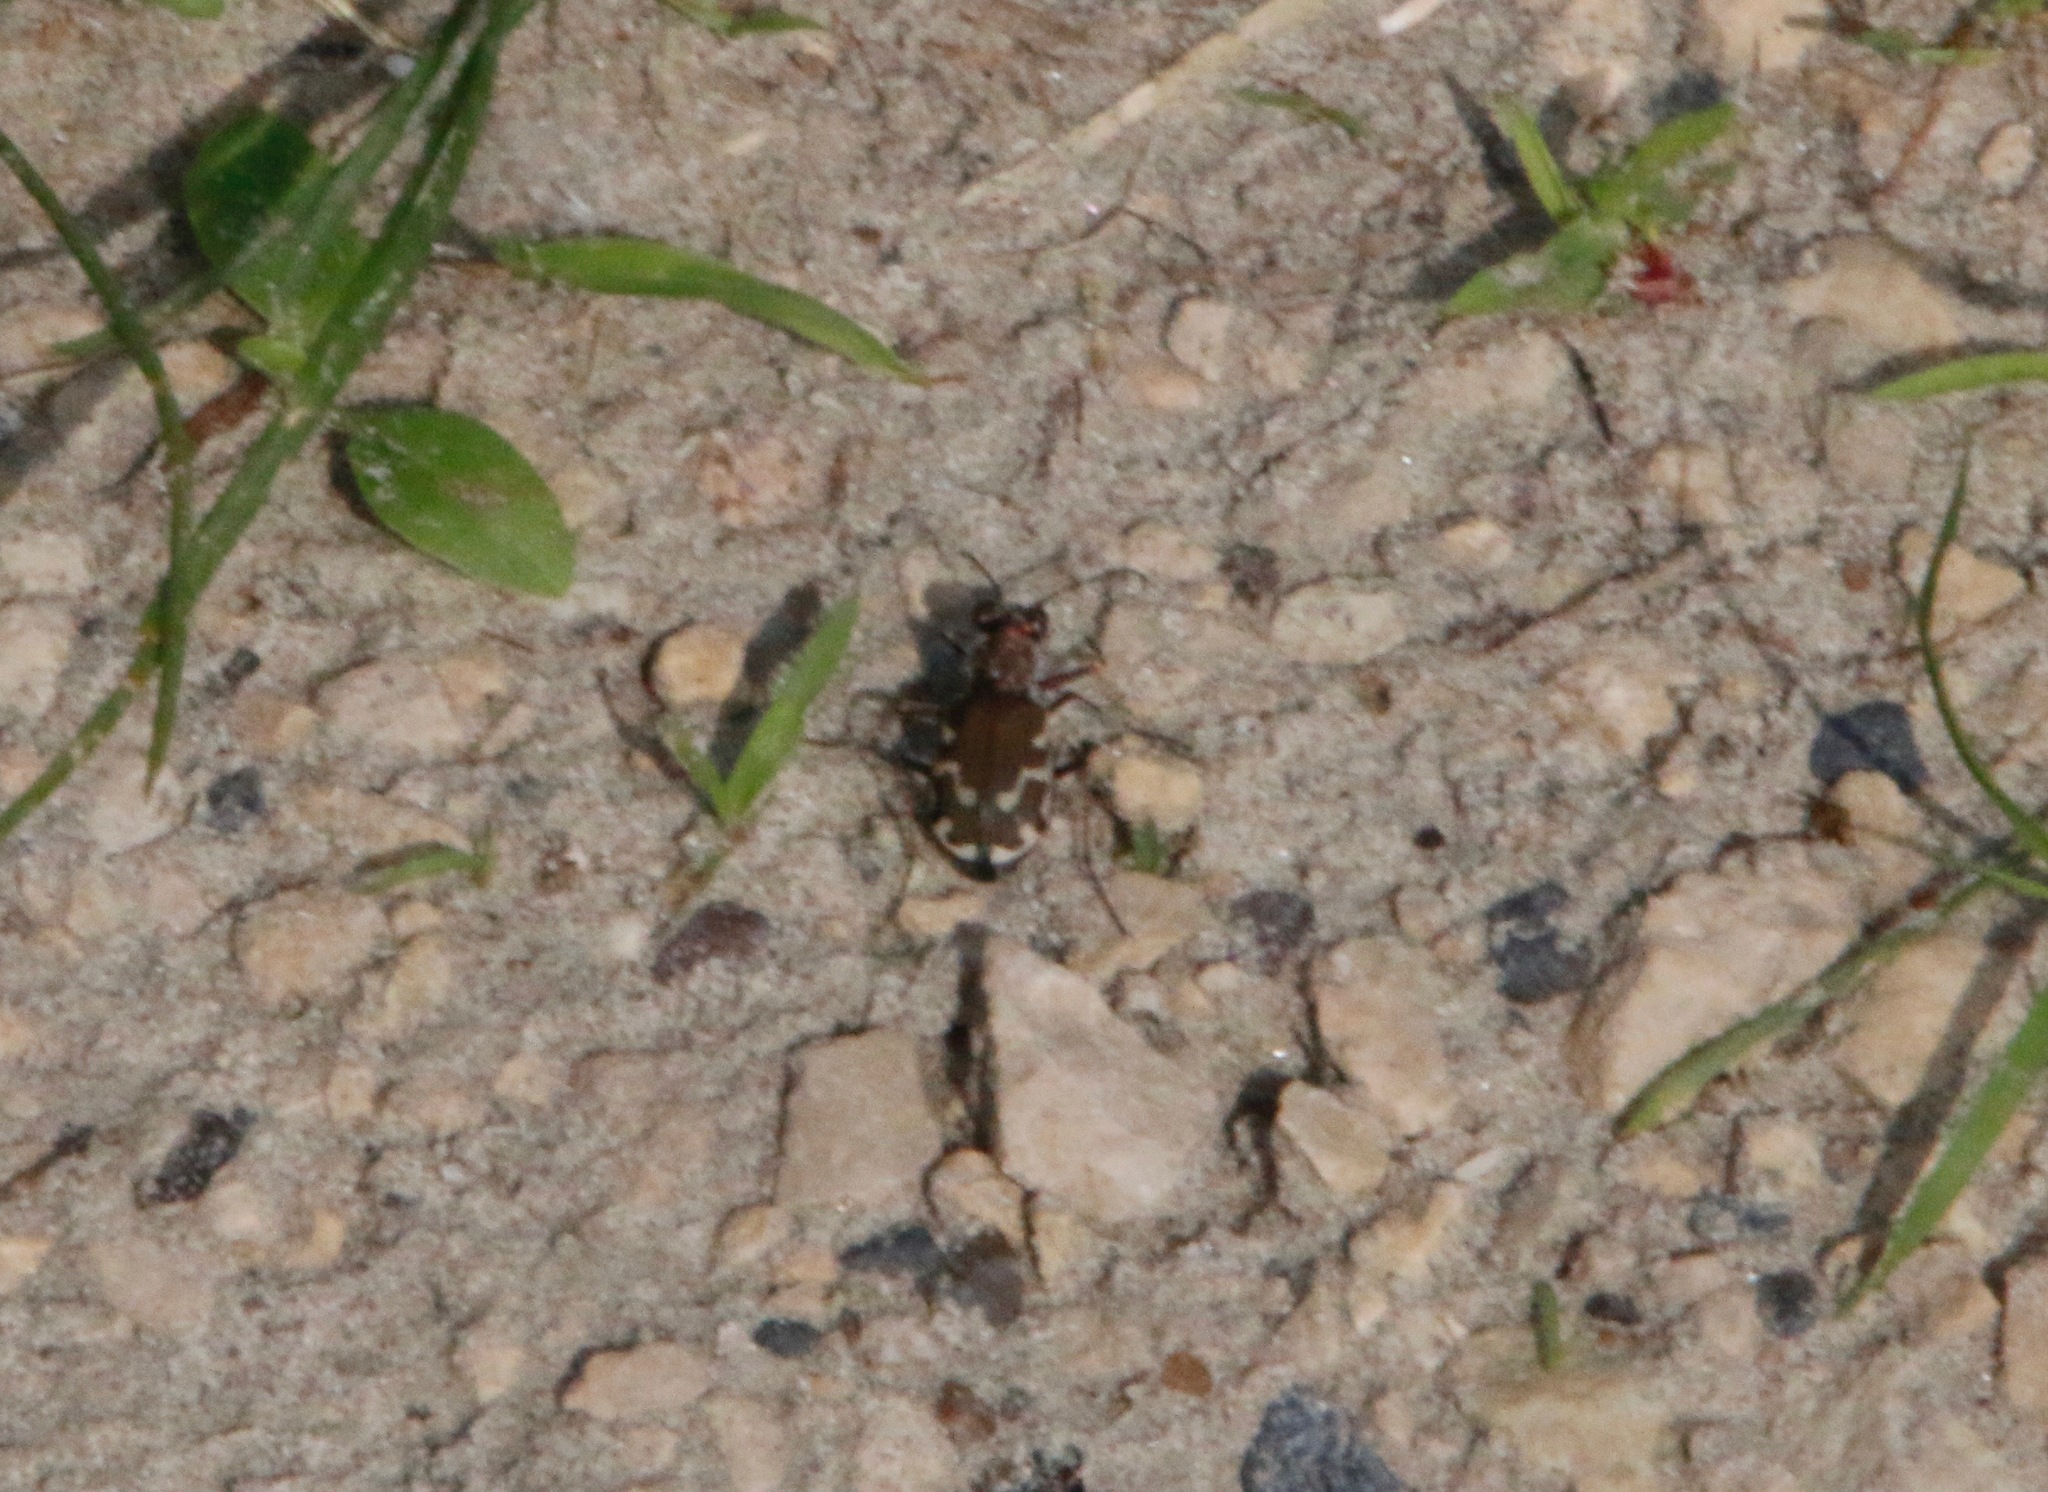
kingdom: Animalia
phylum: Arthropoda
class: Insecta
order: Coleoptera
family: Carabidae
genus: Cicindela
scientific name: Cicindela repanda
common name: Bronzed tiger beetle
